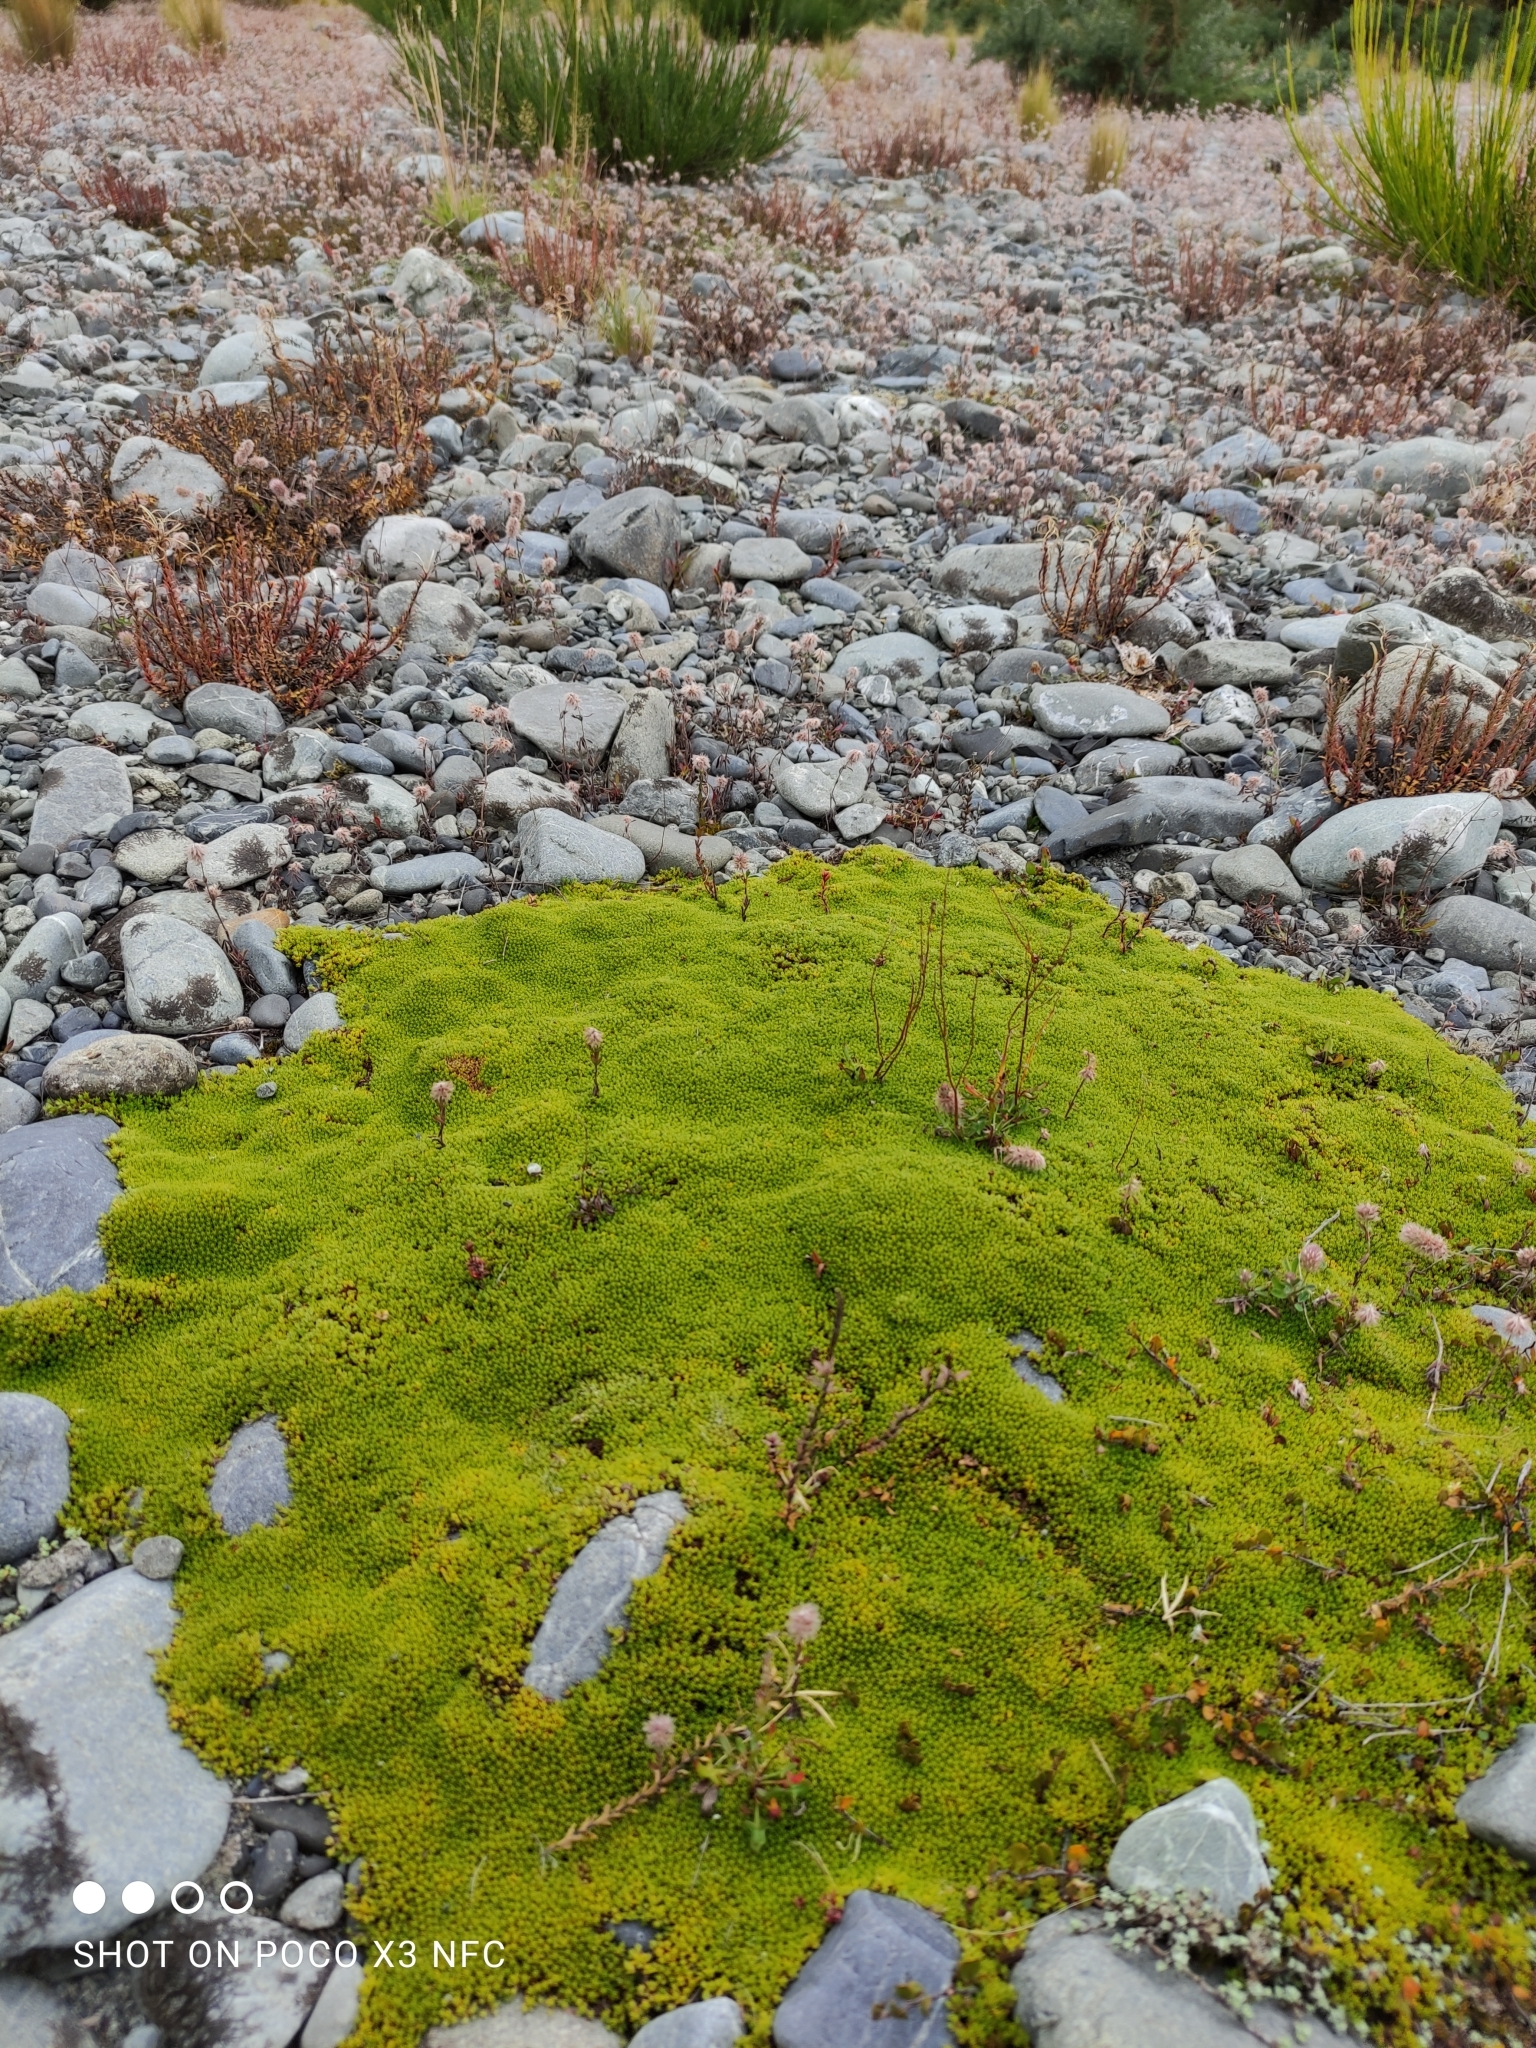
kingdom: Plantae
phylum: Tracheophyta
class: Magnoliopsida
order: Asterales
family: Asteraceae
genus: Raoulia
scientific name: Raoulia haastii
